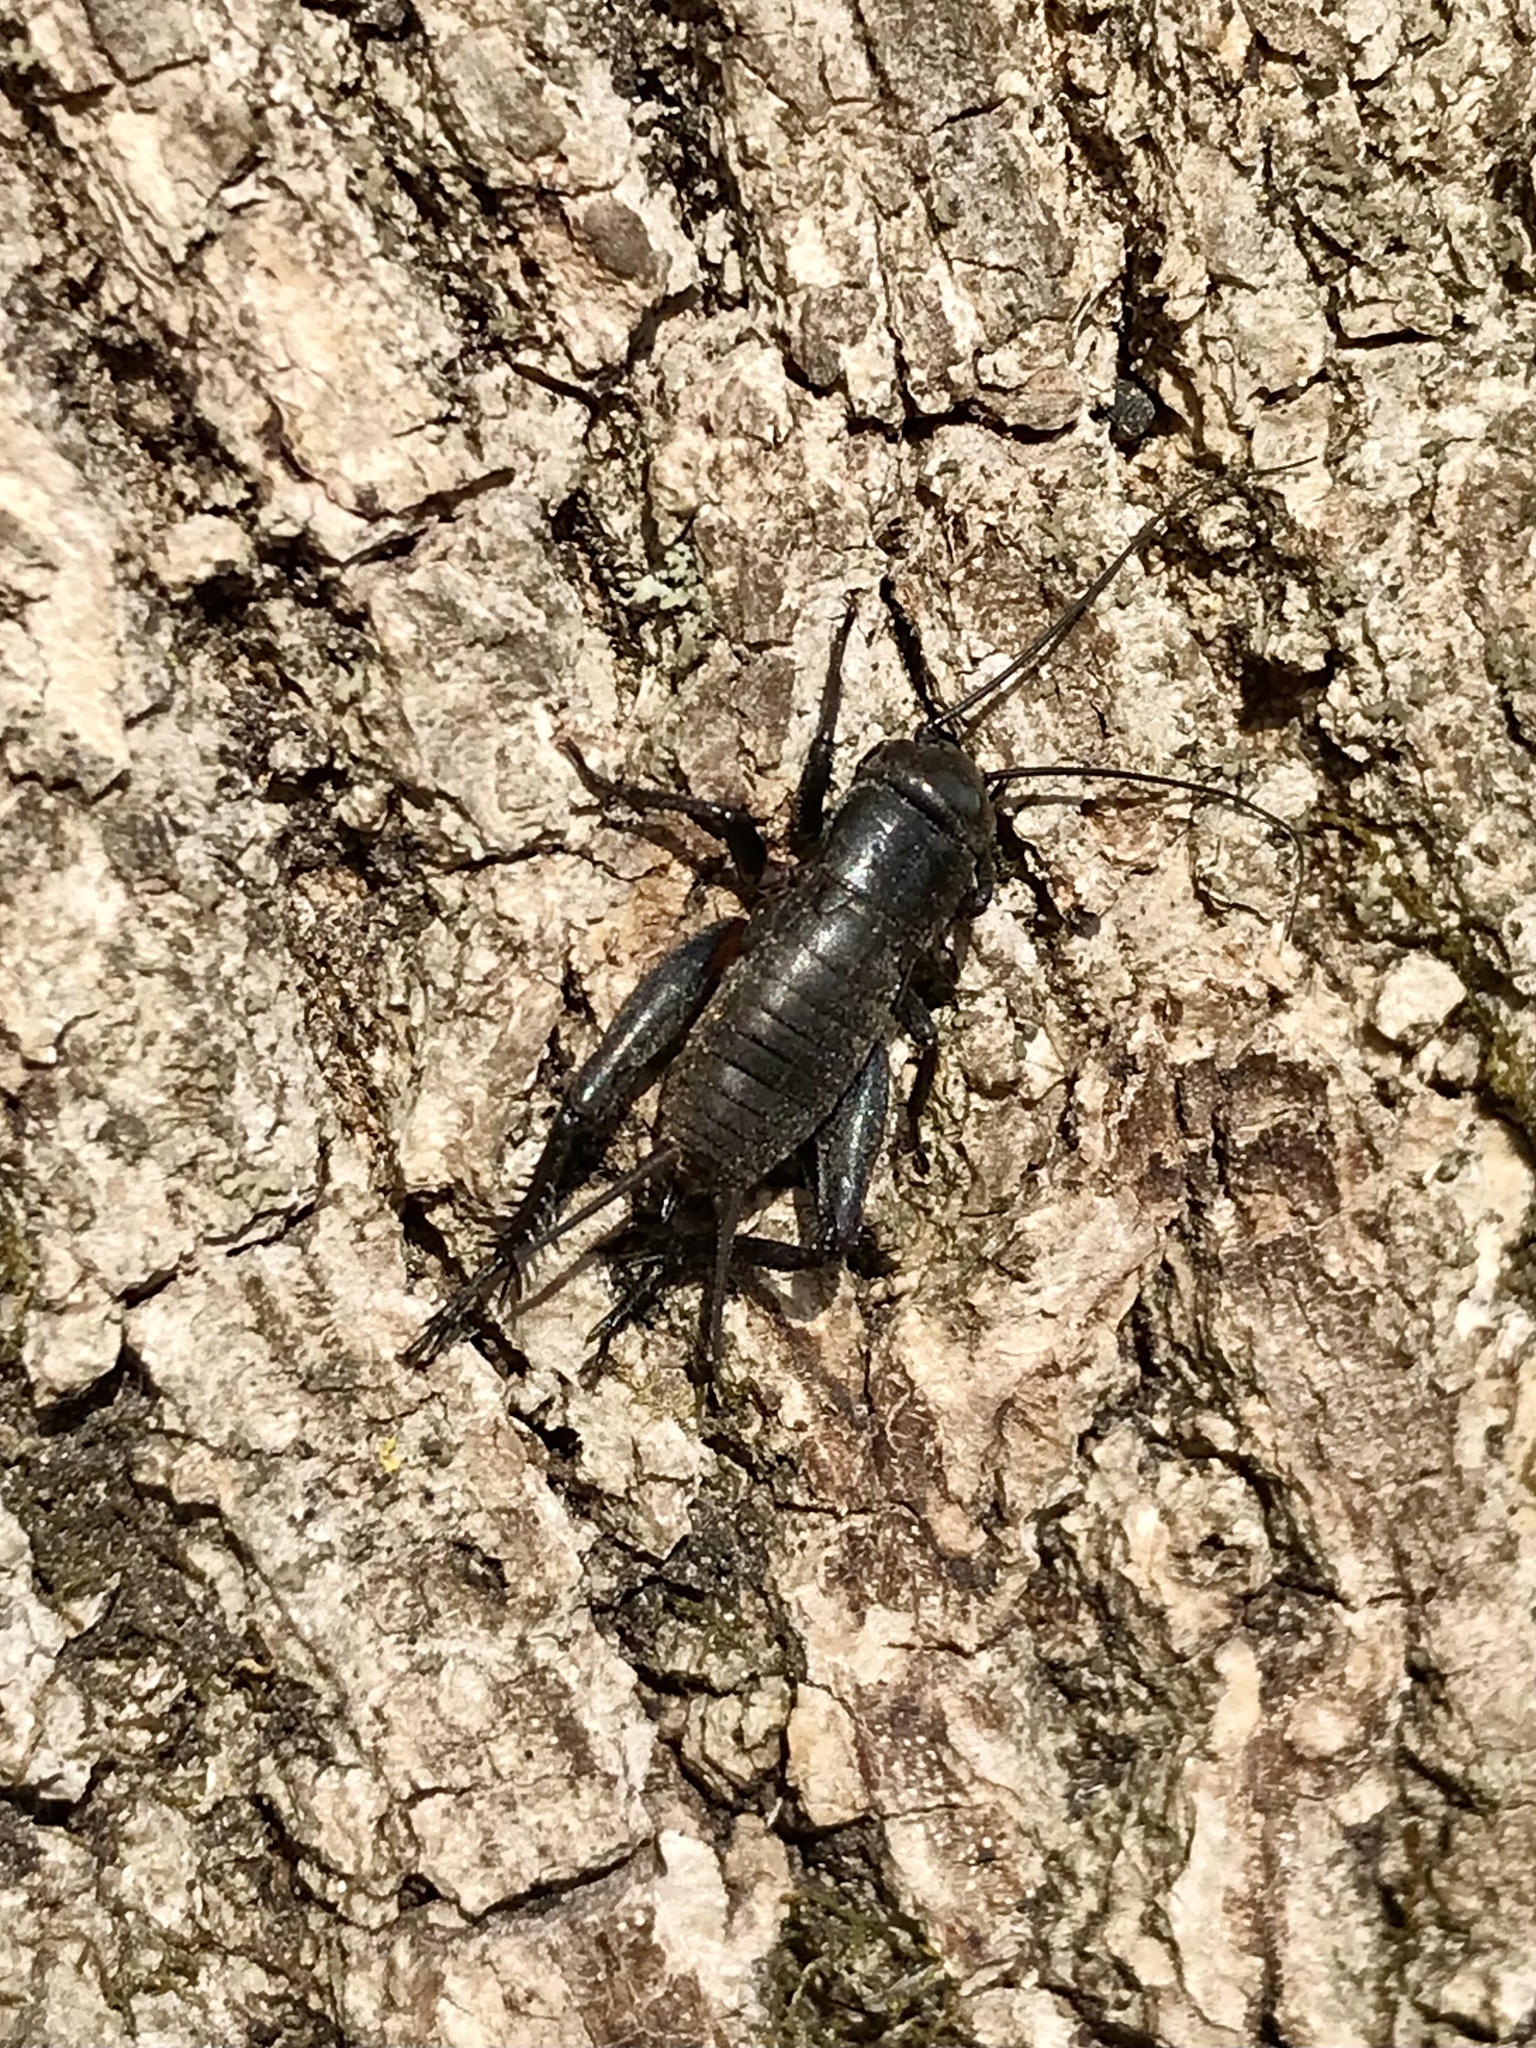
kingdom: Animalia
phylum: Arthropoda
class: Insecta
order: Orthoptera
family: Gryllidae
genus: Gryllus
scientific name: Gryllus veletis
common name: Spring field cricket
